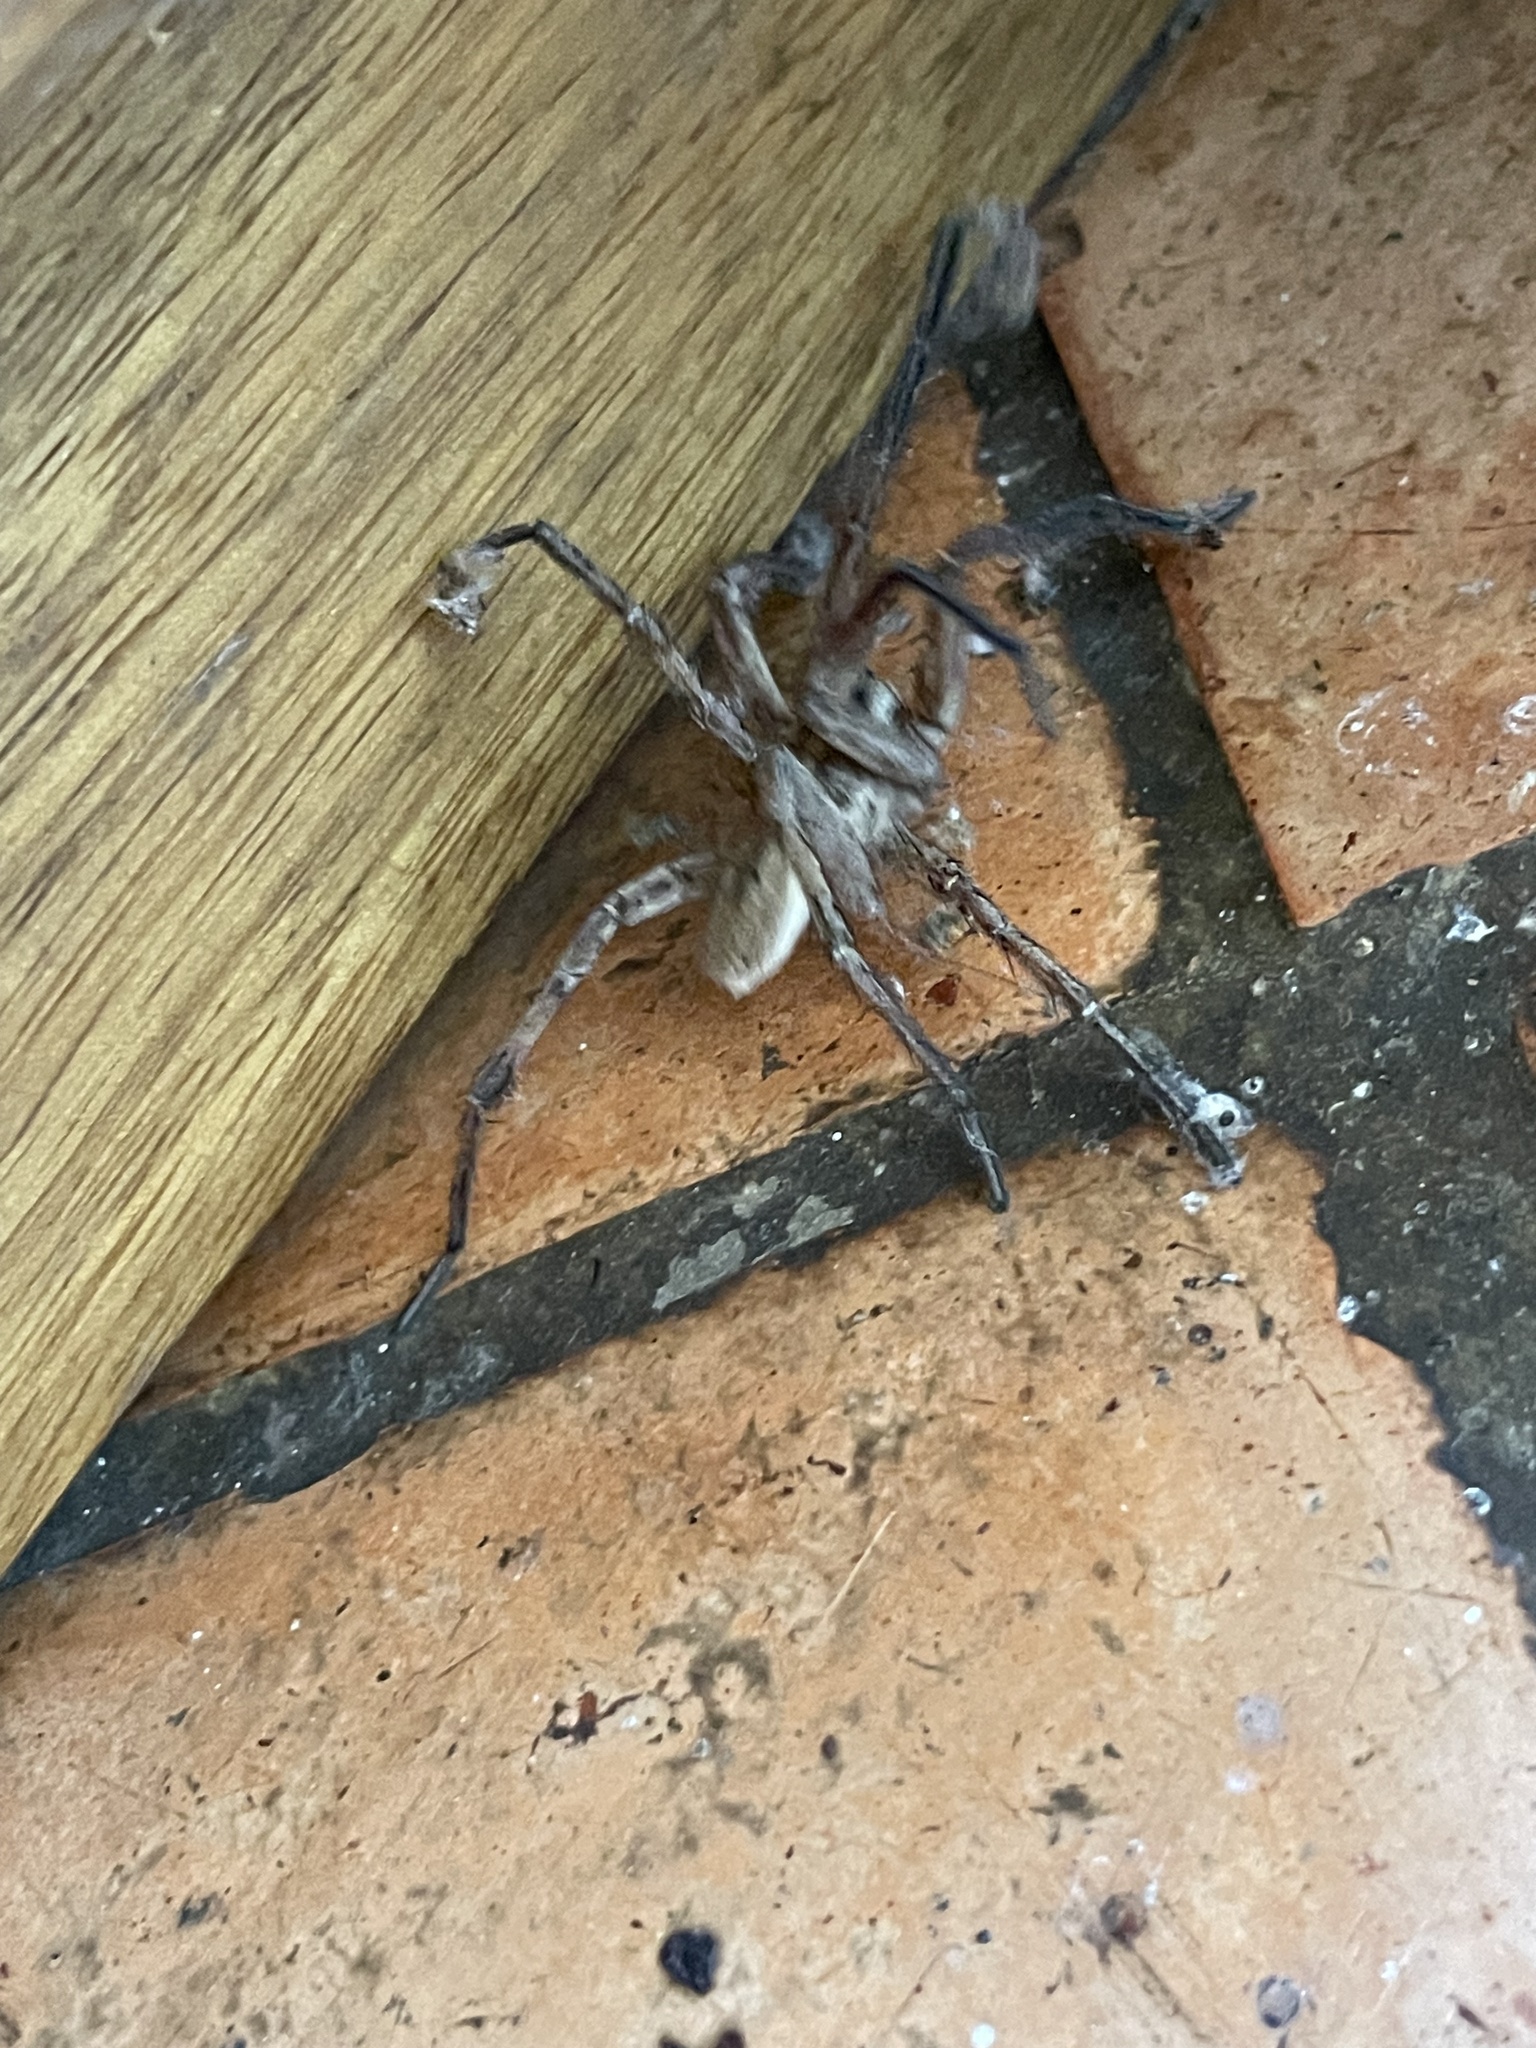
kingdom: Animalia
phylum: Arthropoda
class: Arachnida
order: Araneae
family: Lycosidae
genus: Hogna
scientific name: Hogna radiata
